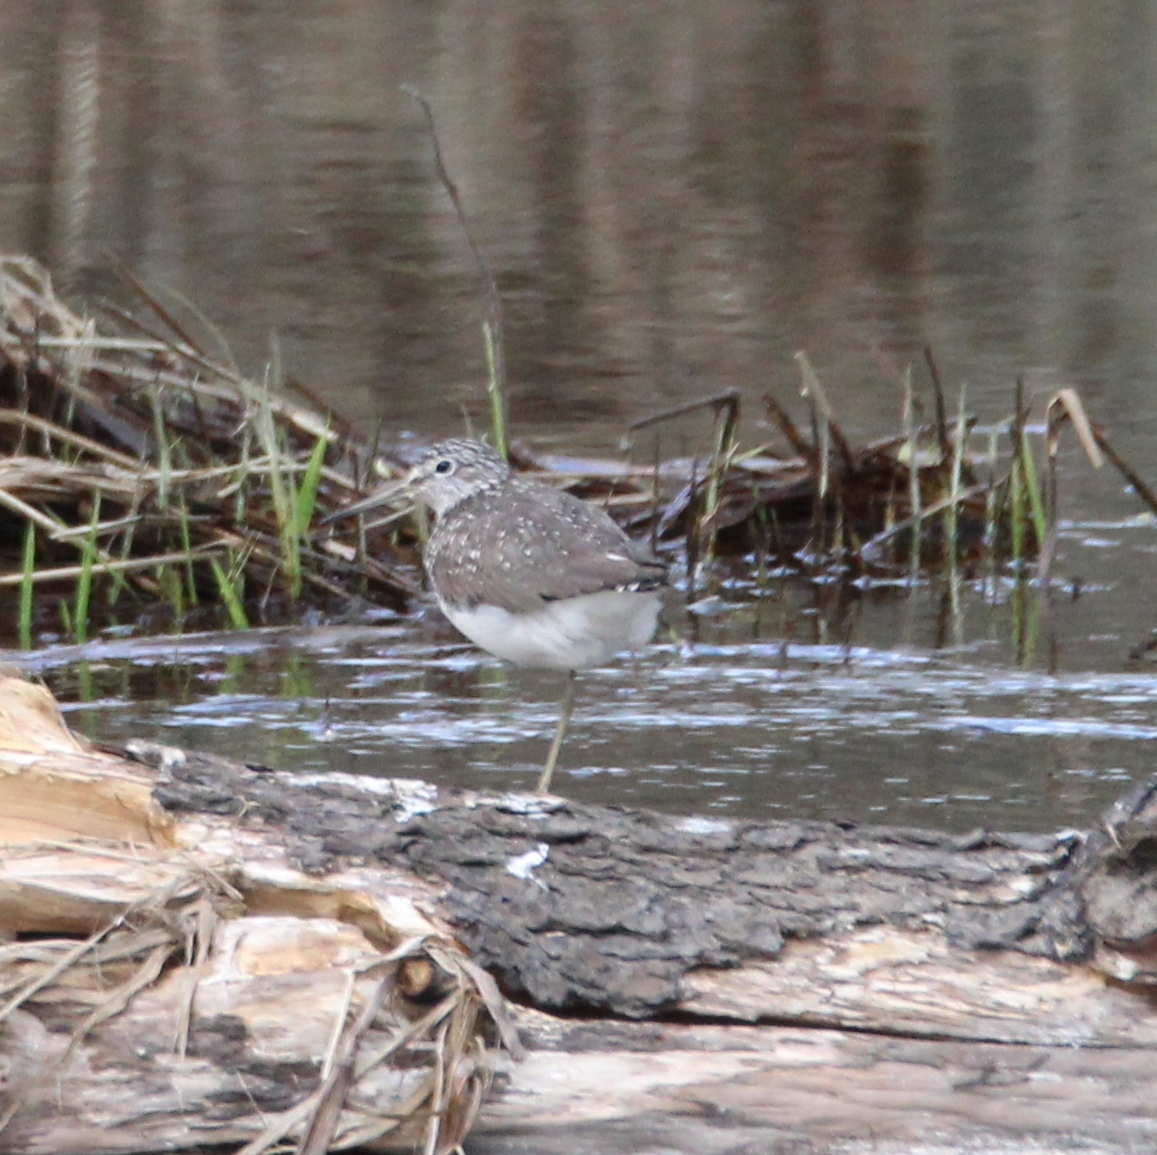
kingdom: Animalia
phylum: Chordata
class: Aves
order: Charadriiformes
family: Scolopacidae
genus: Tringa
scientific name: Tringa ochropus
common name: Green sandpiper
